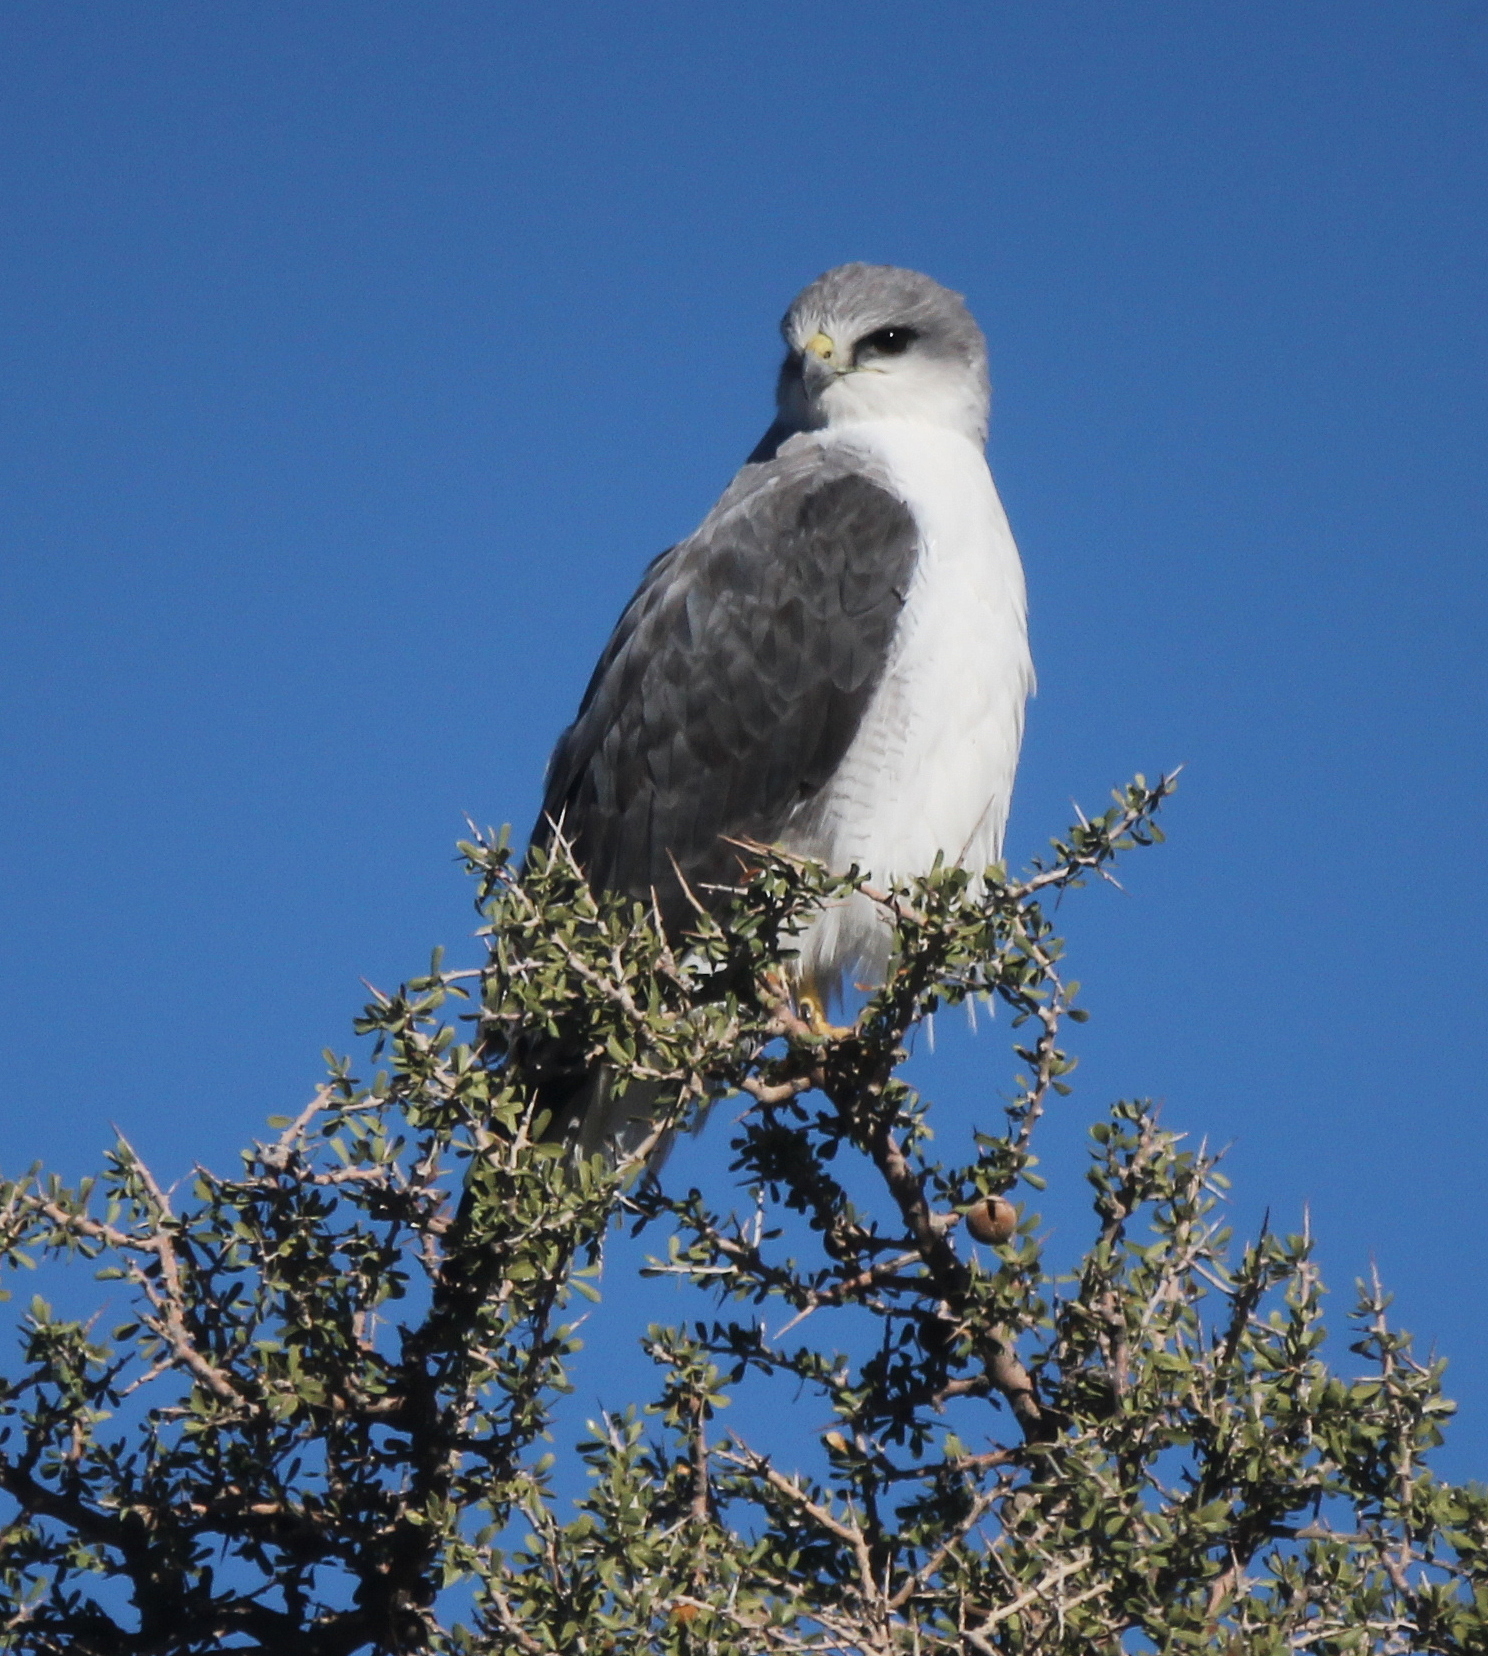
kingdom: Animalia
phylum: Chordata
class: Aves
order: Accipitriformes
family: Accipitridae
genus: Buteo
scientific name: Buteo polyosoma
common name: Variable hawk
